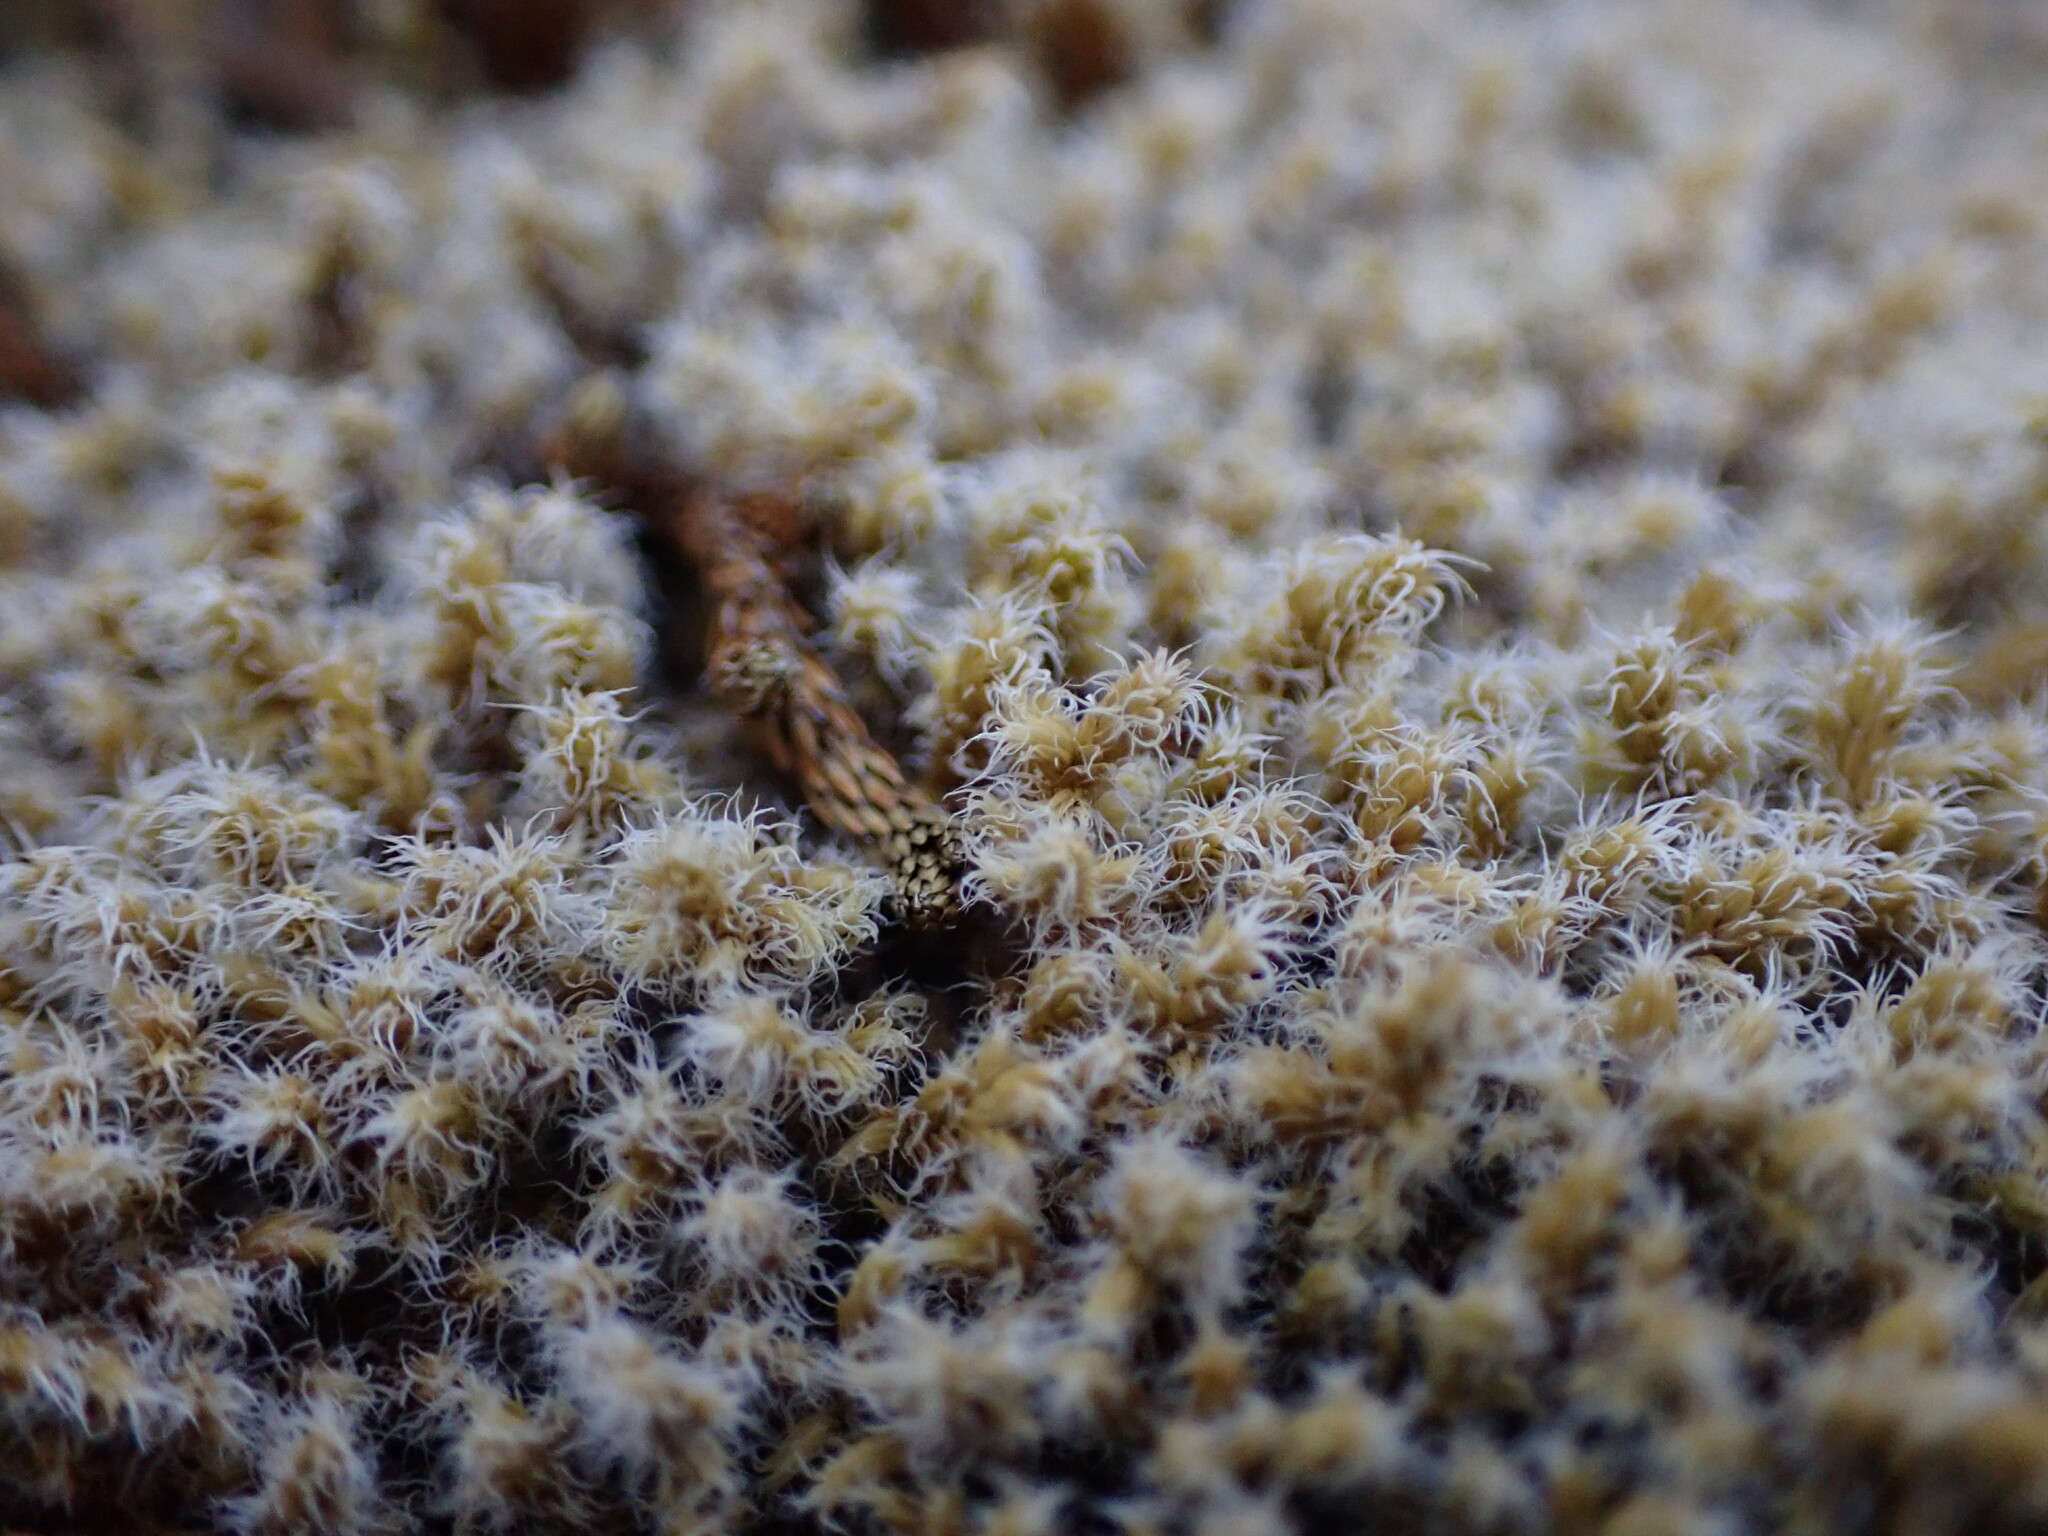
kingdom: Plantae
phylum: Bryophyta
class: Bryopsida
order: Grimmiales
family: Grimmiaceae
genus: Niphotrichum
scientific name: Niphotrichum elongatum
